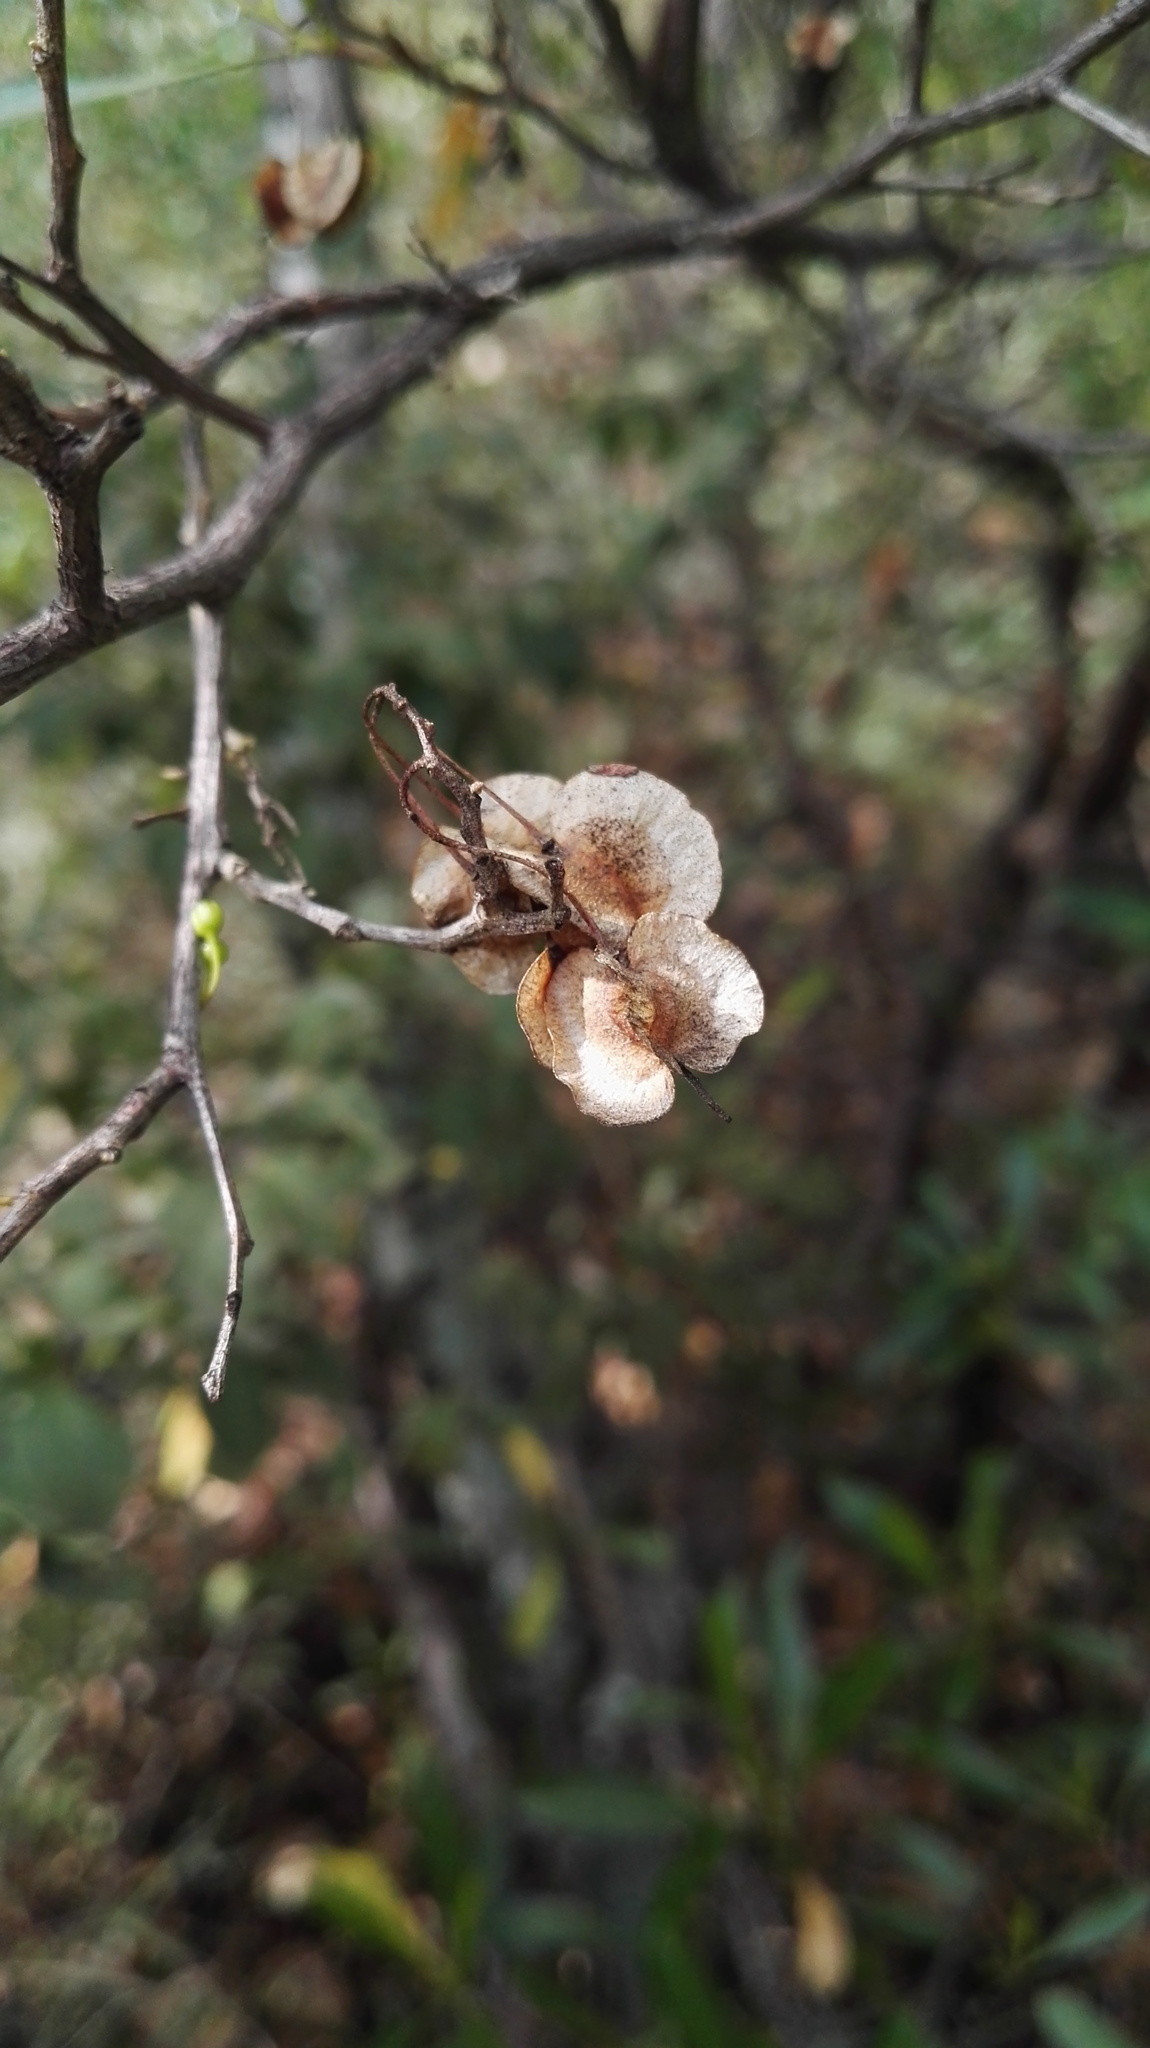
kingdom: Plantae
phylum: Tracheophyta
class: Magnoliopsida
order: Sapindales
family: Sapindaceae
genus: Dodonaea
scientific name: Dodonaea viscosa
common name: Hopbush
